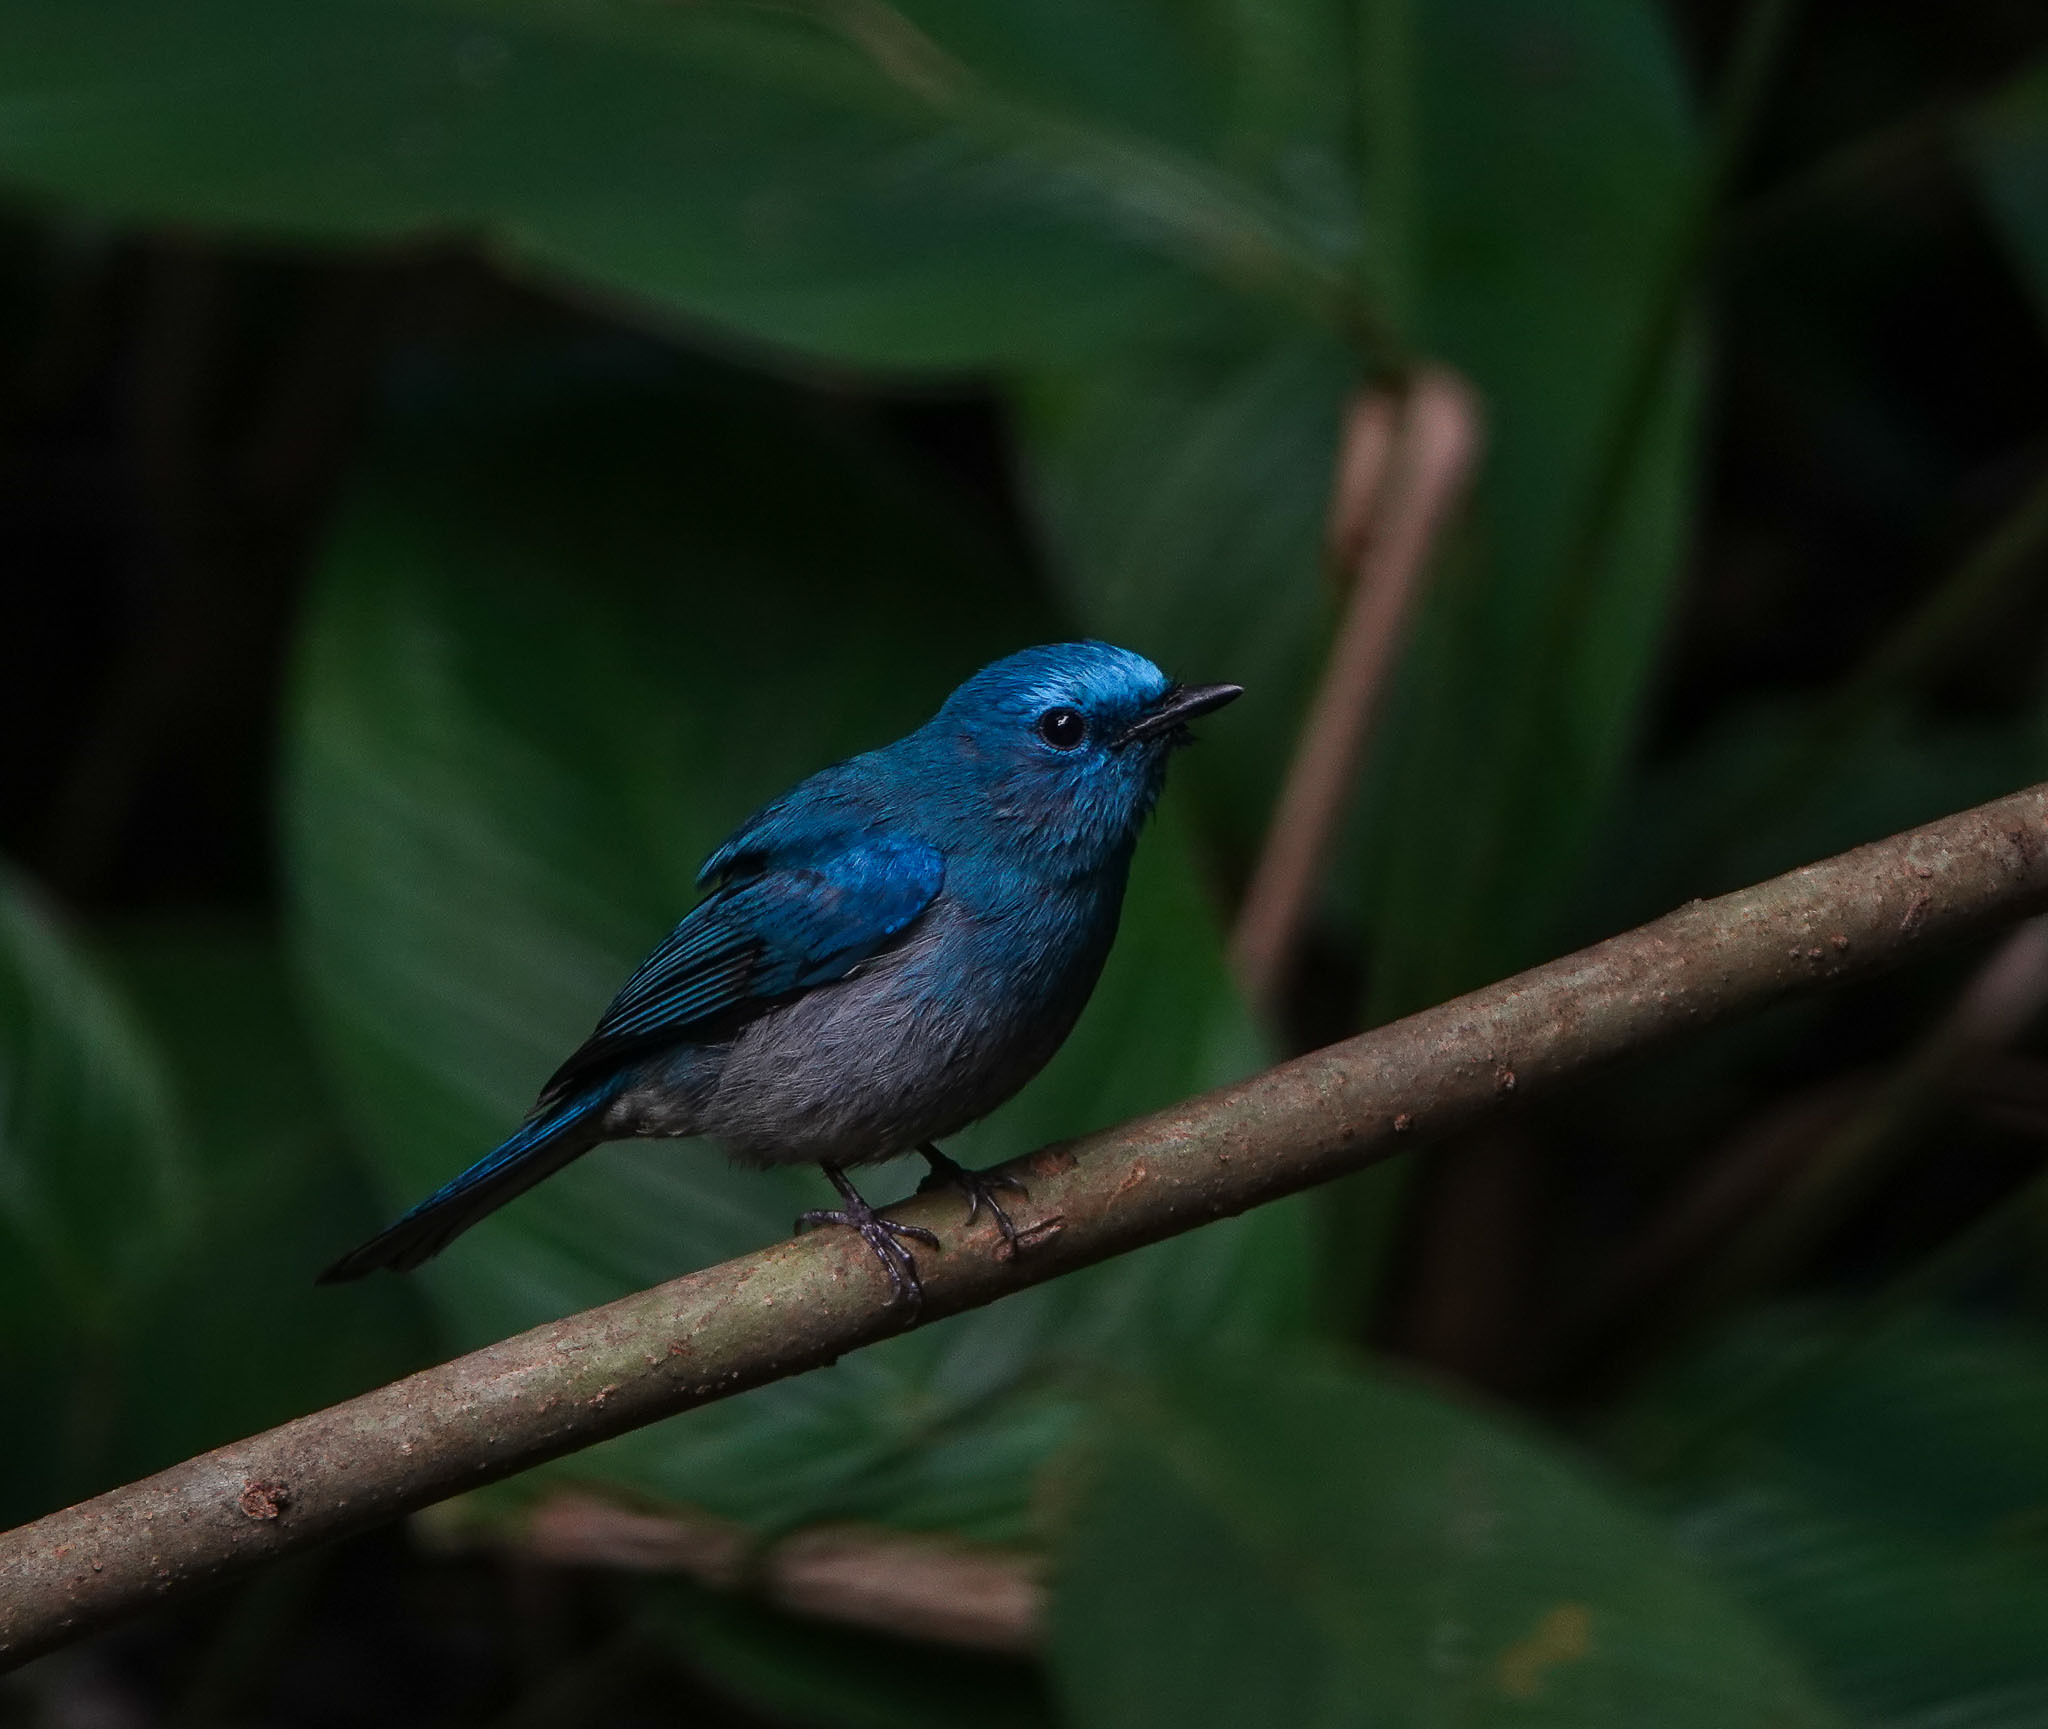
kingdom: Animalia
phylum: Chordata
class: Aves
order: Passeriformes
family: Muscicapidae
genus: Cyornis
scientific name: Cyornis unicolor
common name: Pale blue flycatcher
